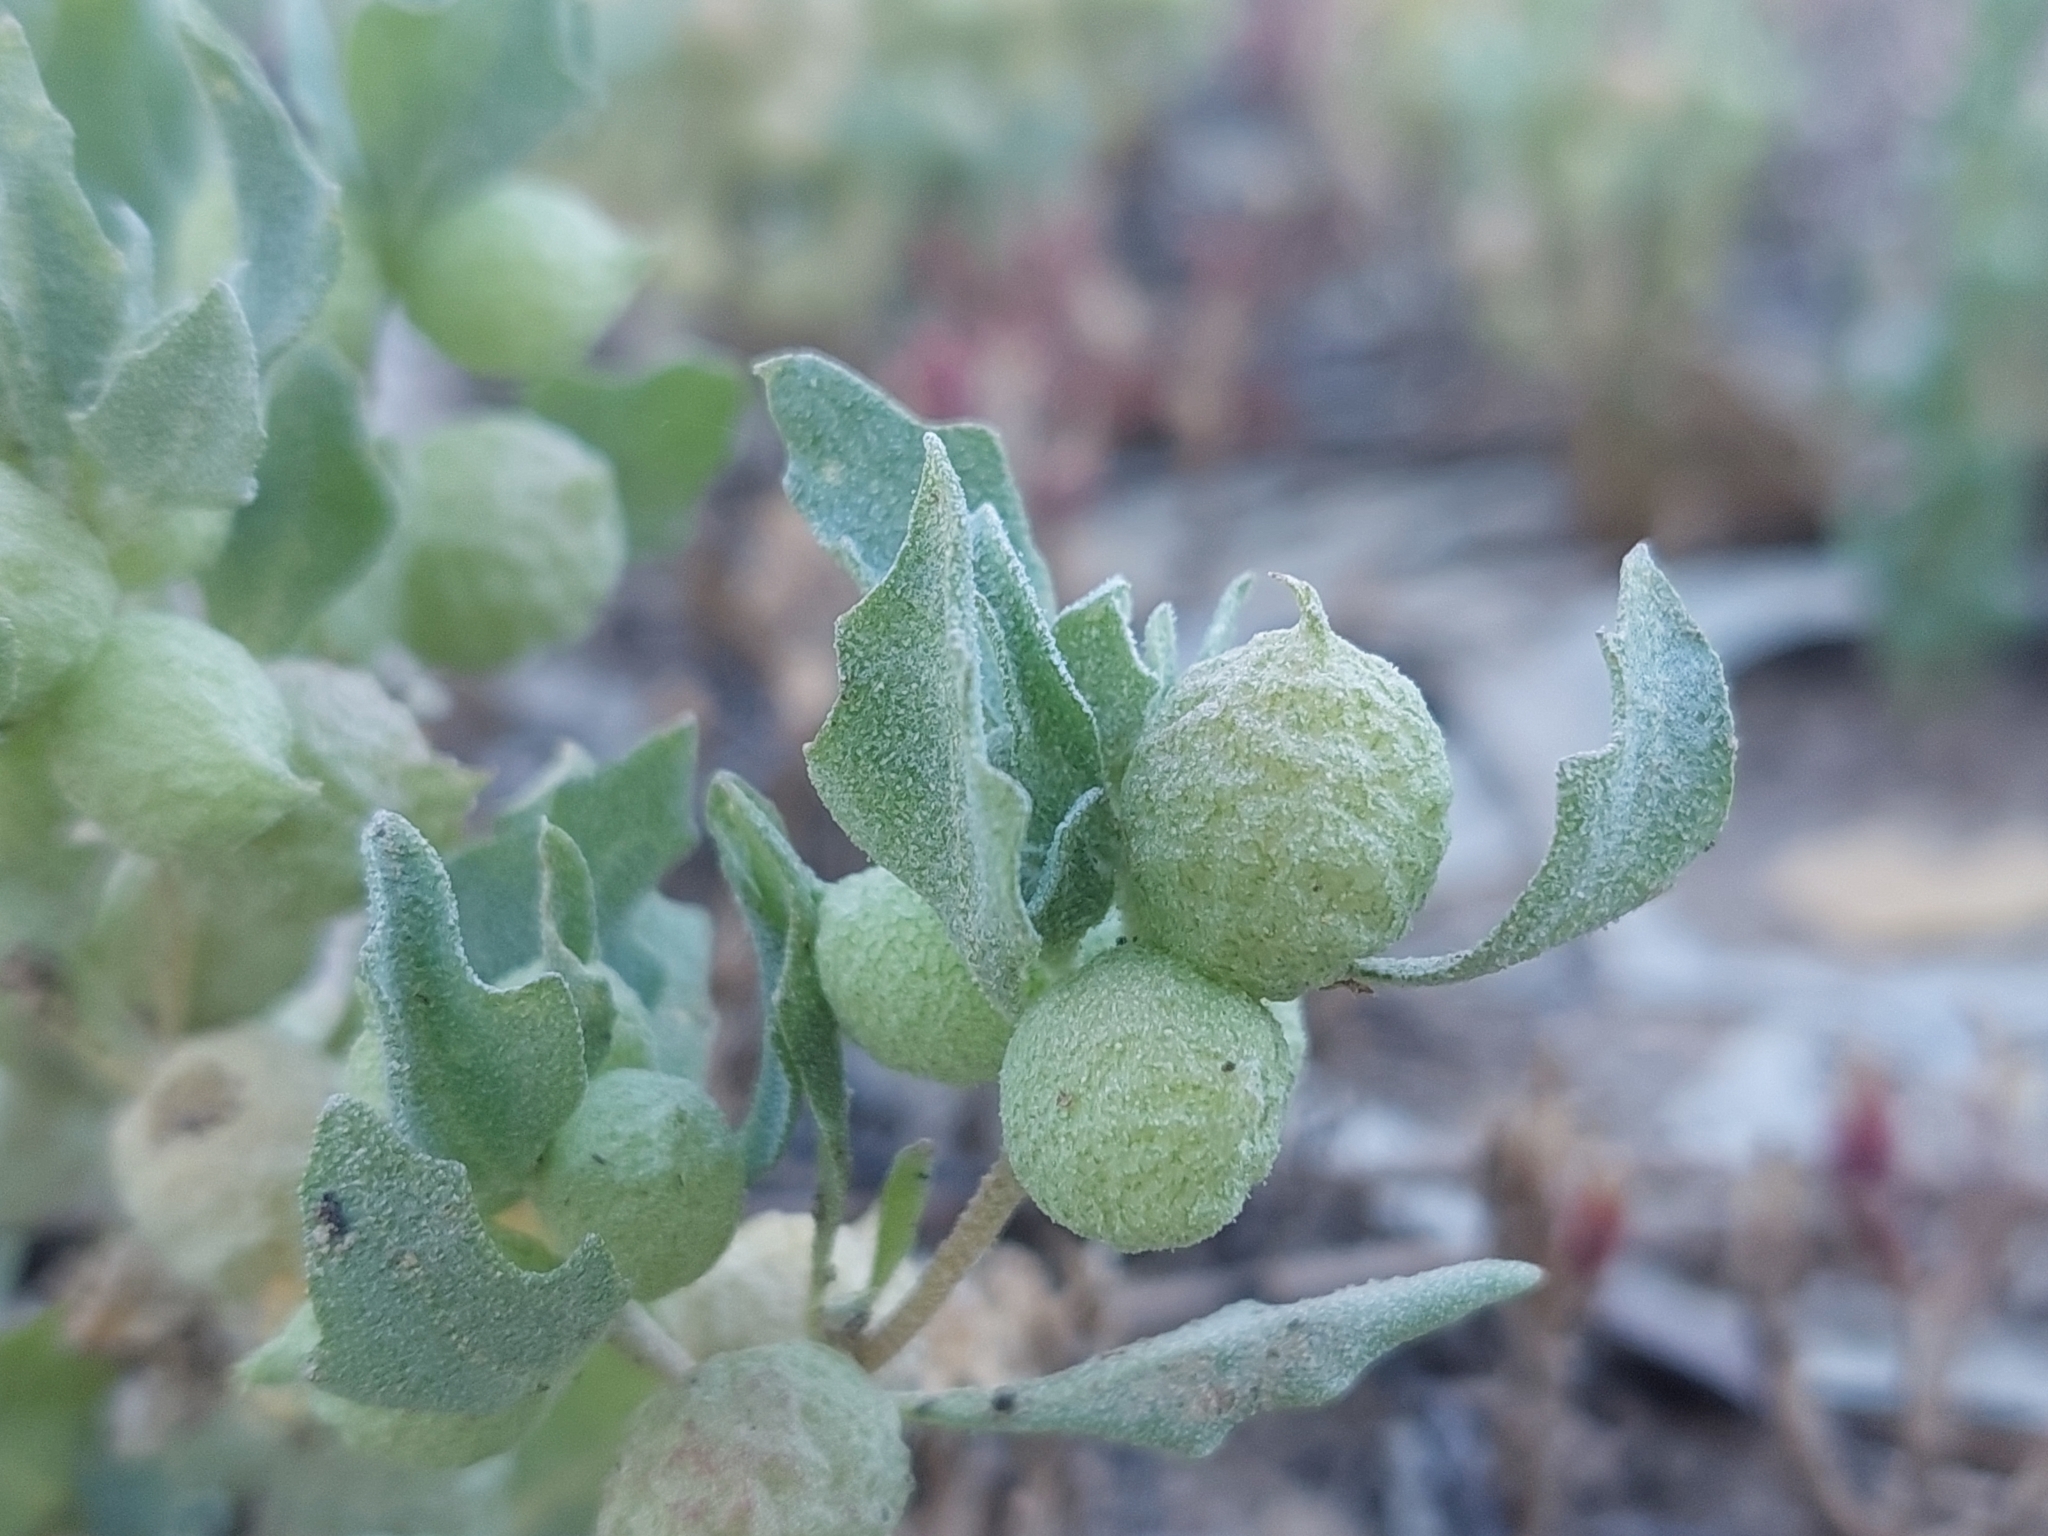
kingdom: Plantae
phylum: Tracheophyta
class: Magnoliopsida
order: Caryophyllales
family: Amaranthaceae
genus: Atriplex
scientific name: Atriplex holocarpa
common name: Pop saltbush
